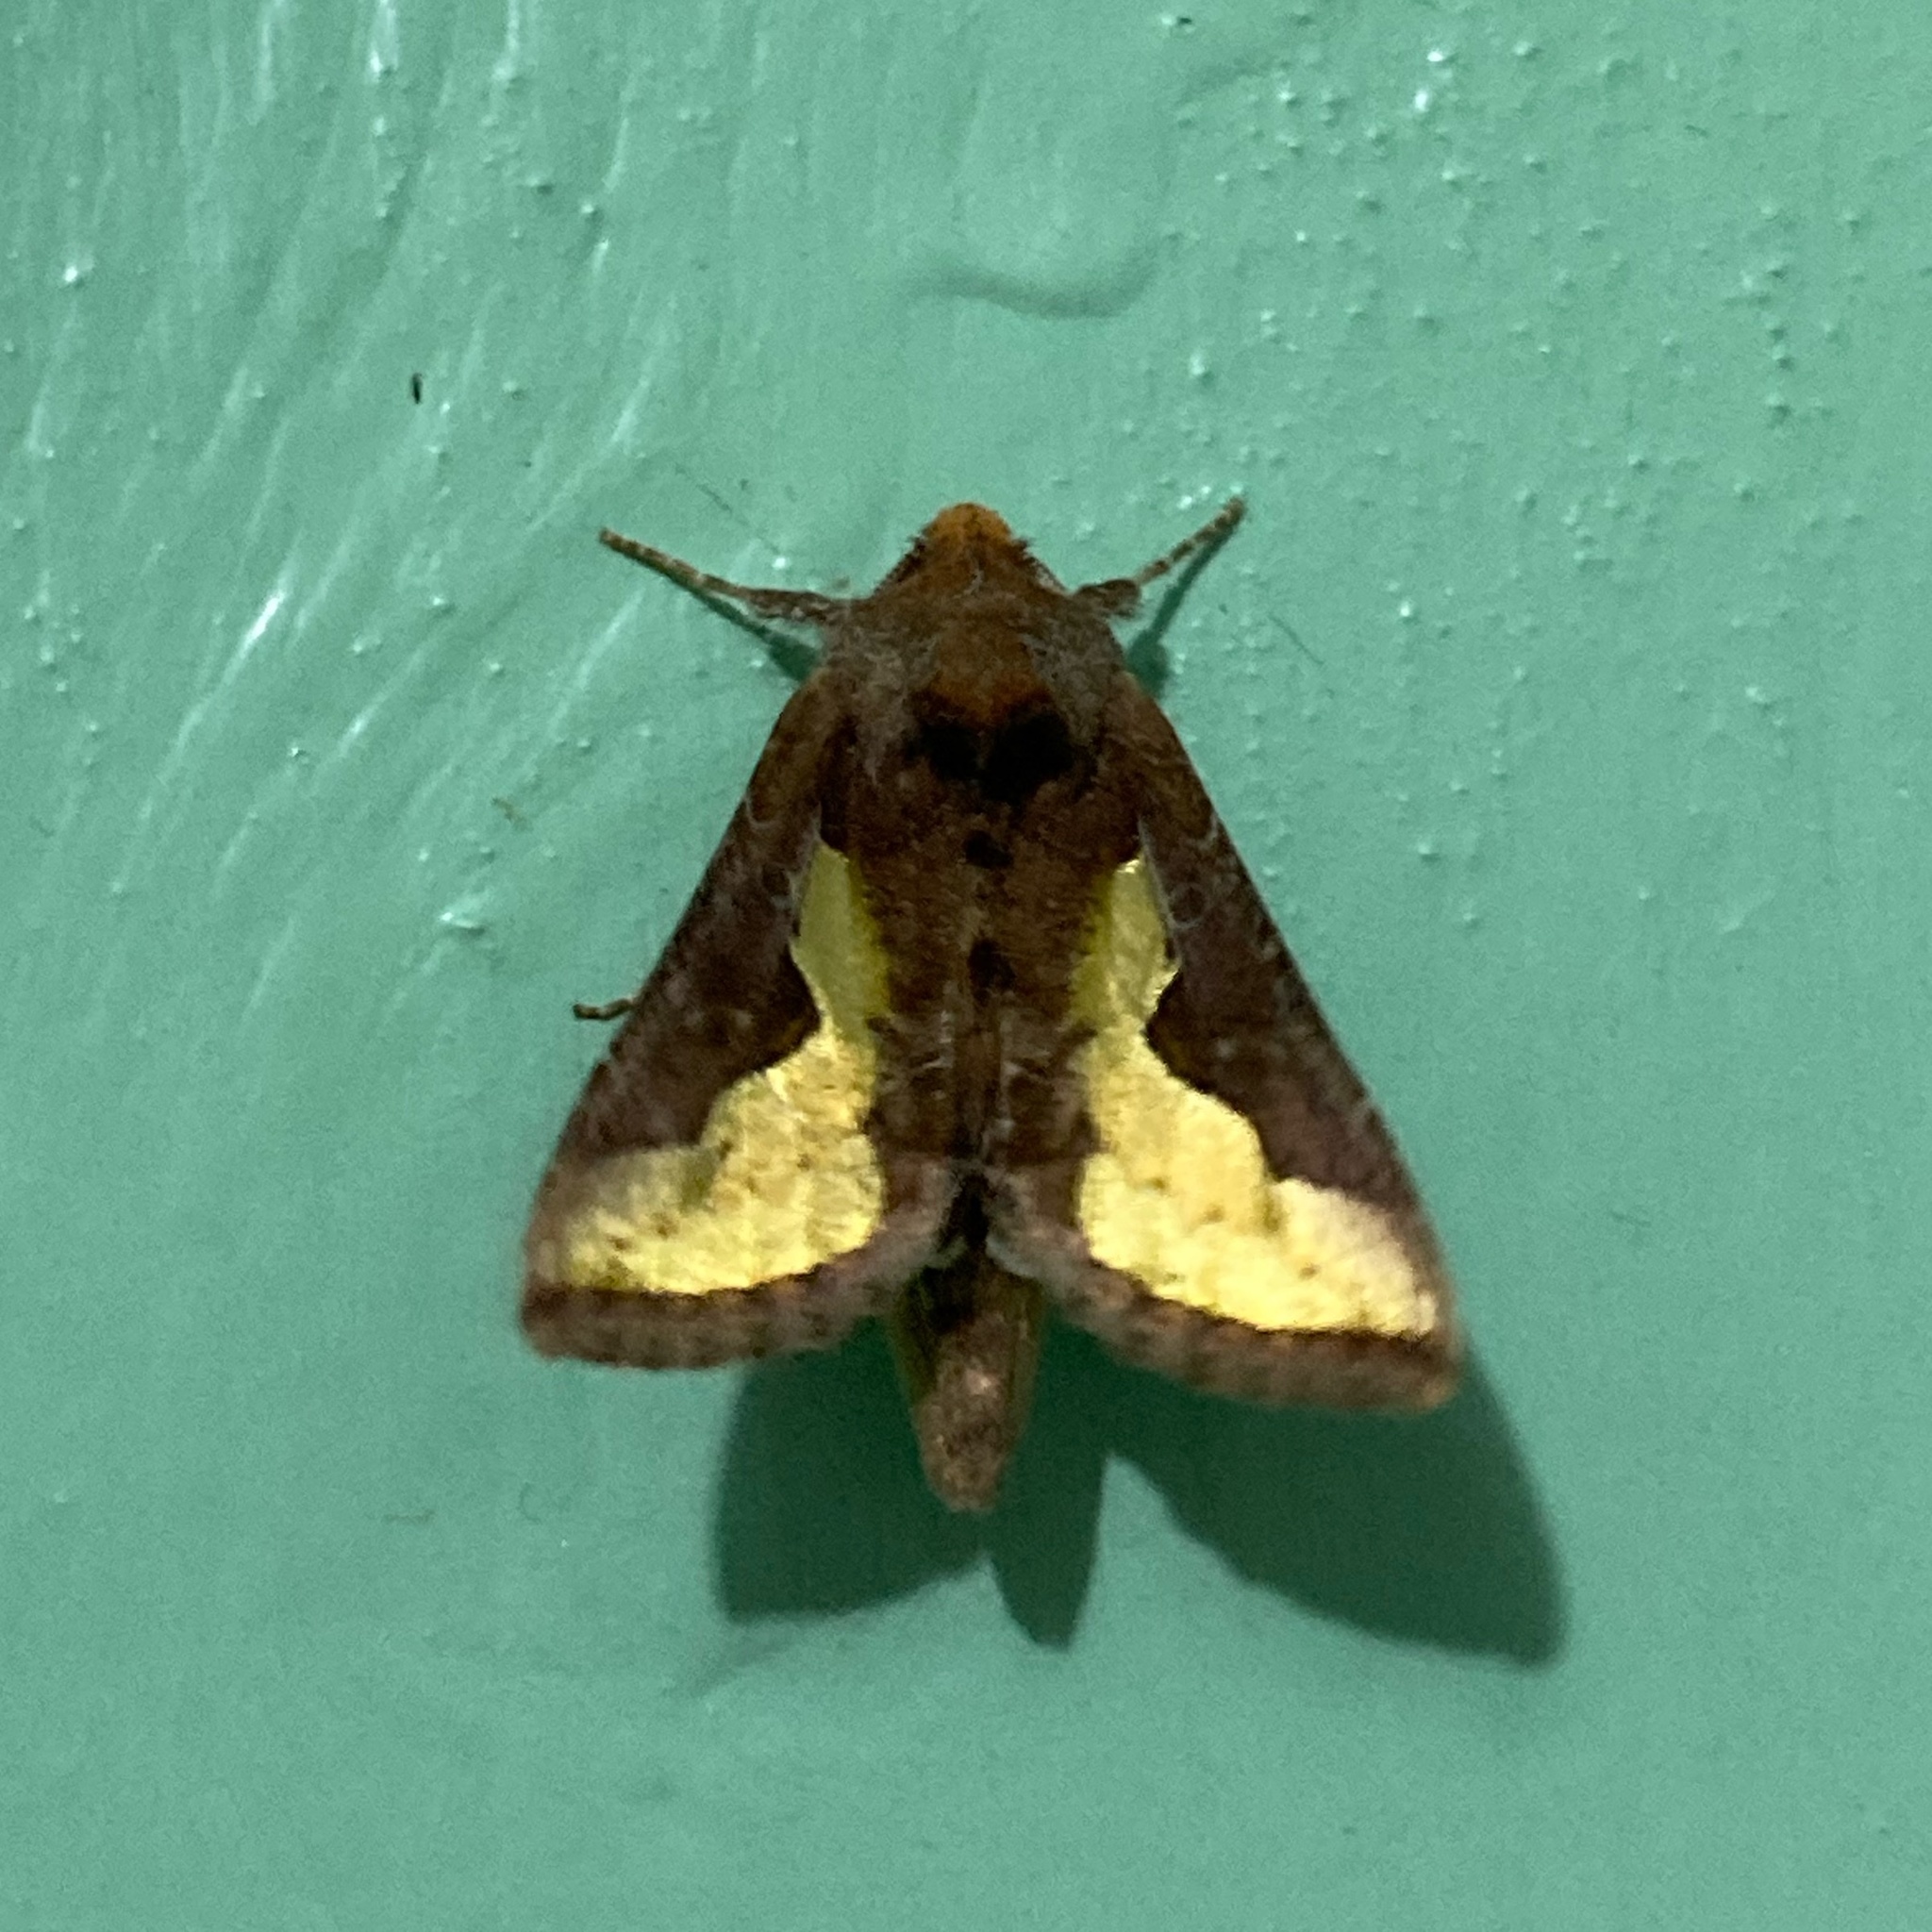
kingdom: Animalia
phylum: Arthropoda
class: Insecta
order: Lepidoptera
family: Noctuidae
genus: Thysanoplusia
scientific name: Thysanoplusia orichalcea
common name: Slender burnished brass, golden plusia
